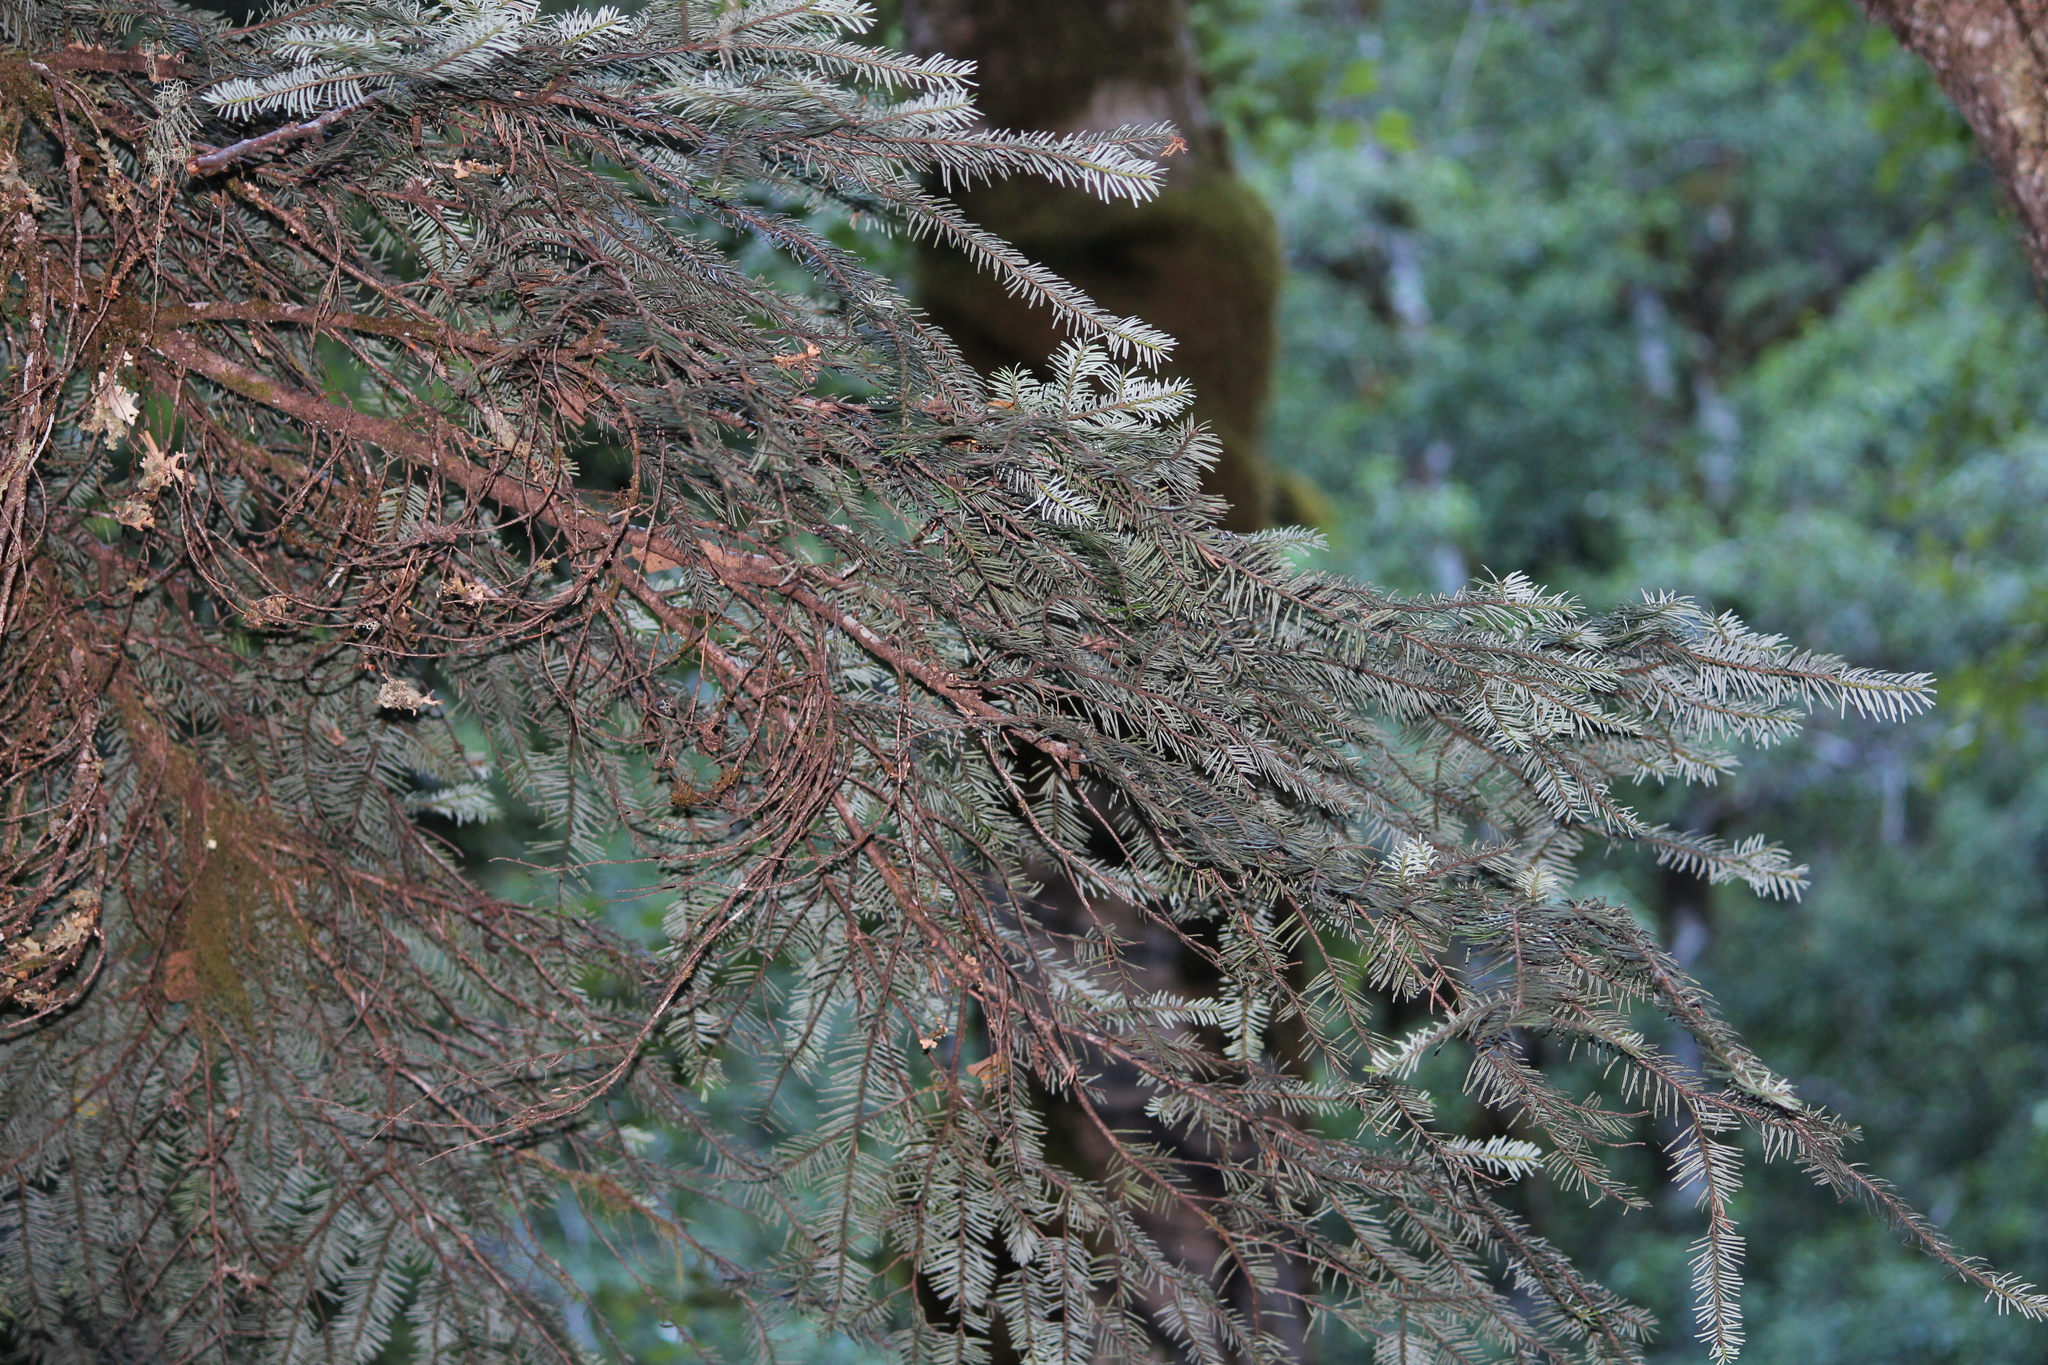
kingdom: Plantae
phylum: Tracheophyta
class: Pinopsida
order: Pinales
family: Pinaceae
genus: Abies
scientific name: Abies amabilis
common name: Pacific silver fir
